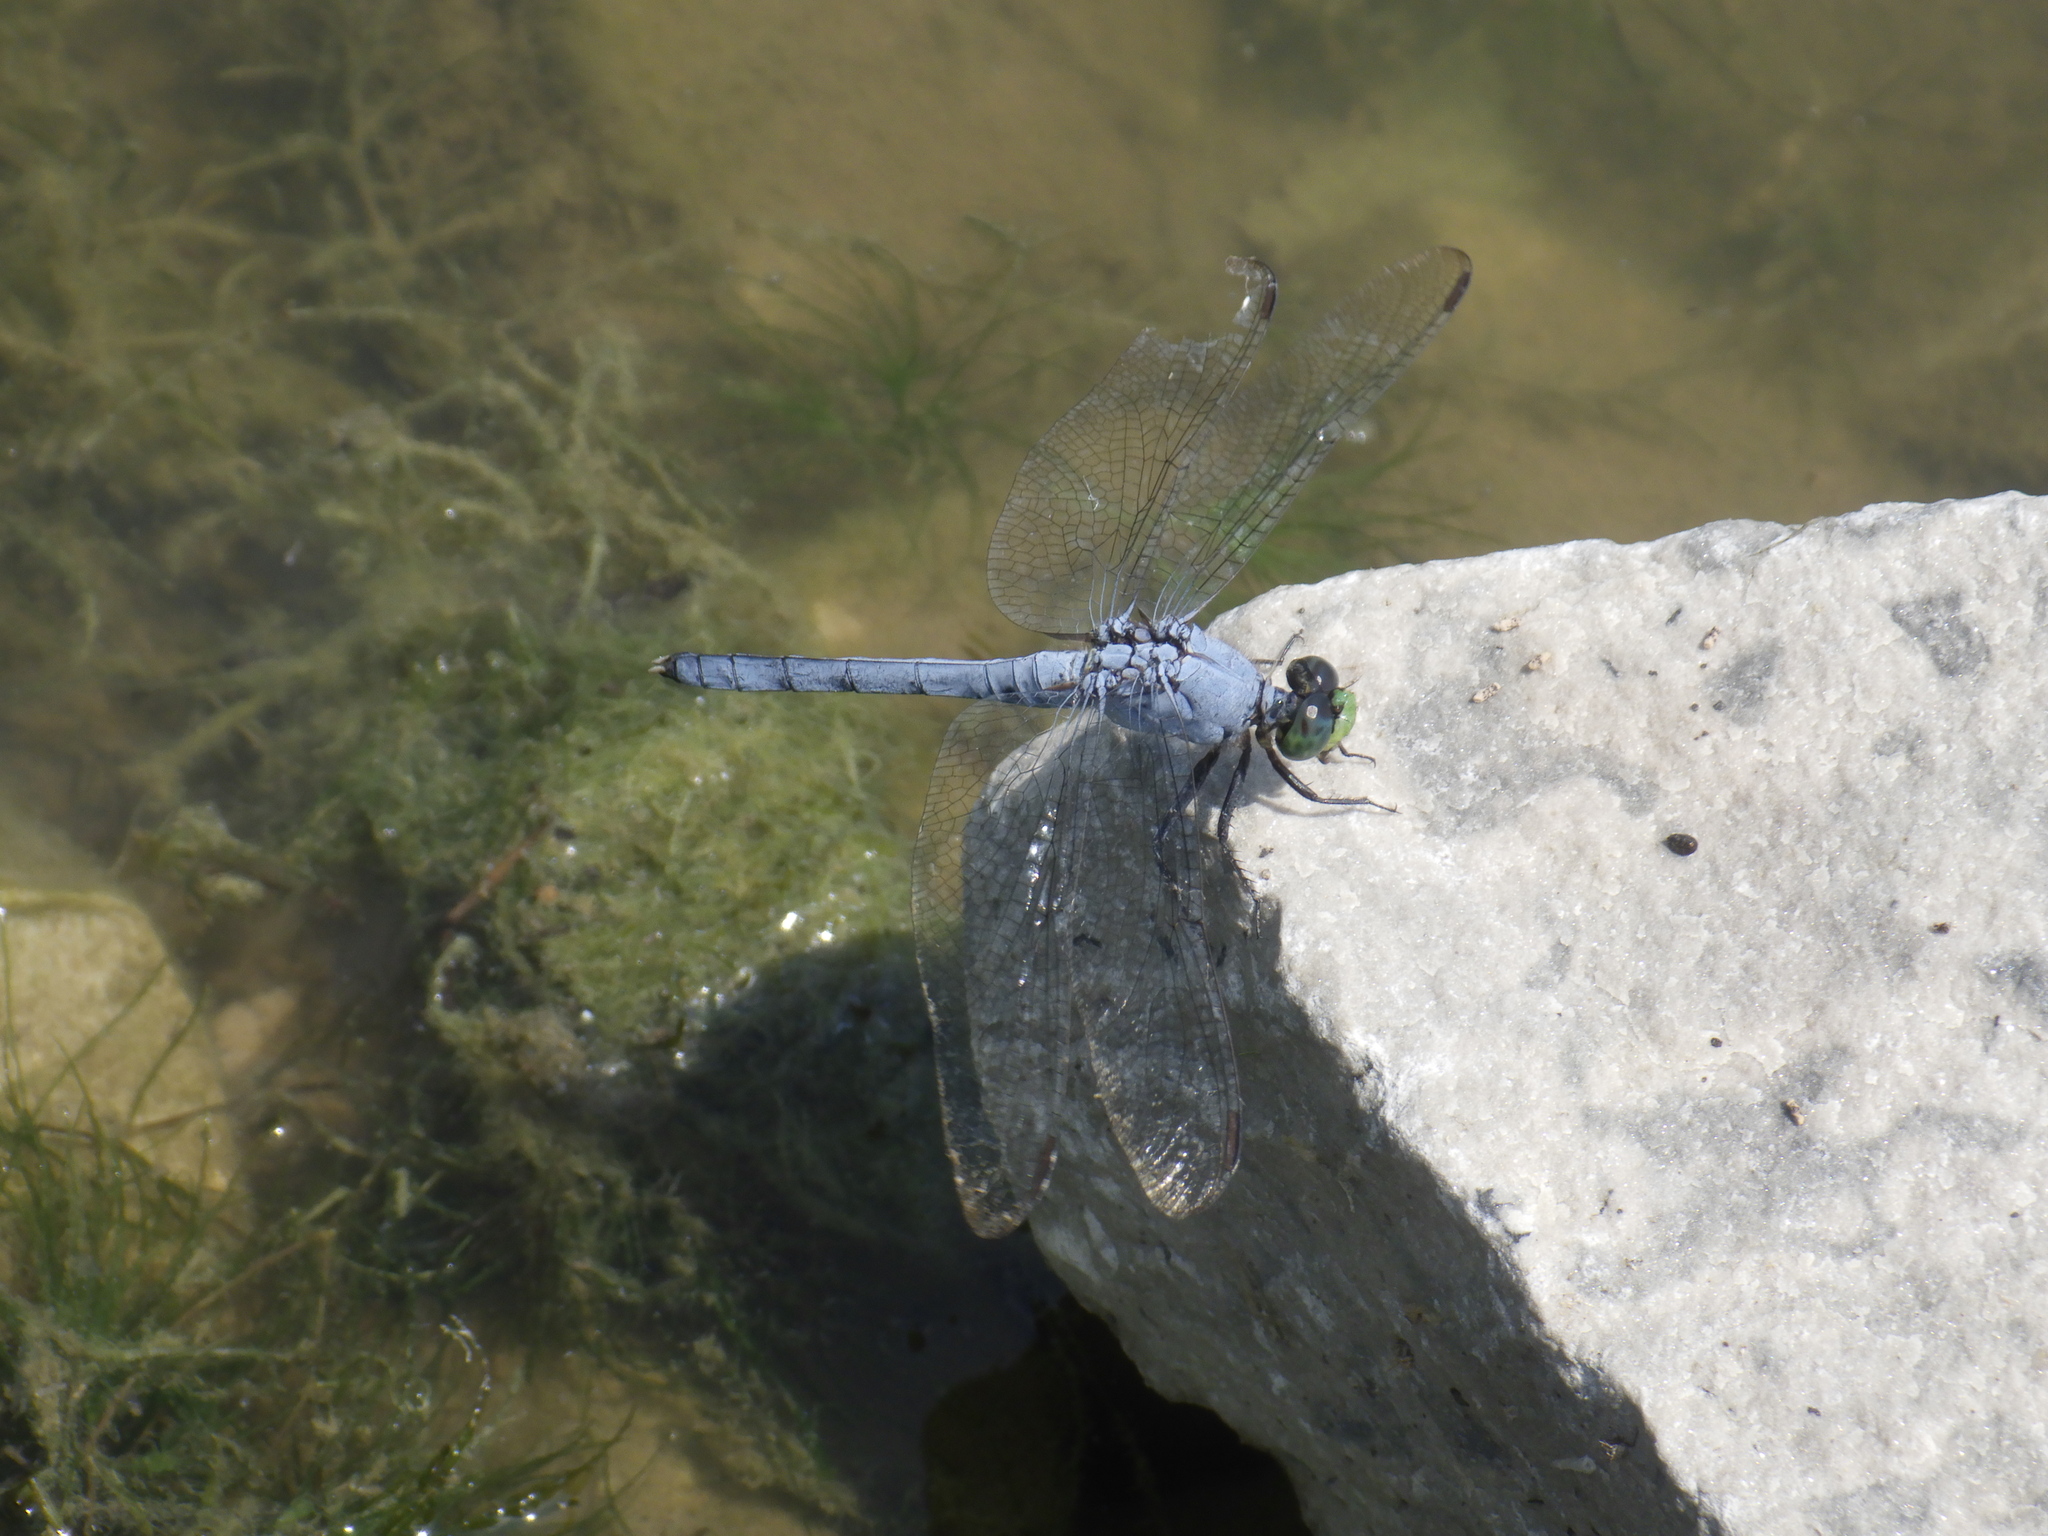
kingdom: Animalia
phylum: Arthropoda
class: Insecta
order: Odonata
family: Libellulidae
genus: Erythemis
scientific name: Erythemis simplicicollis
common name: Eastern pondhawk
